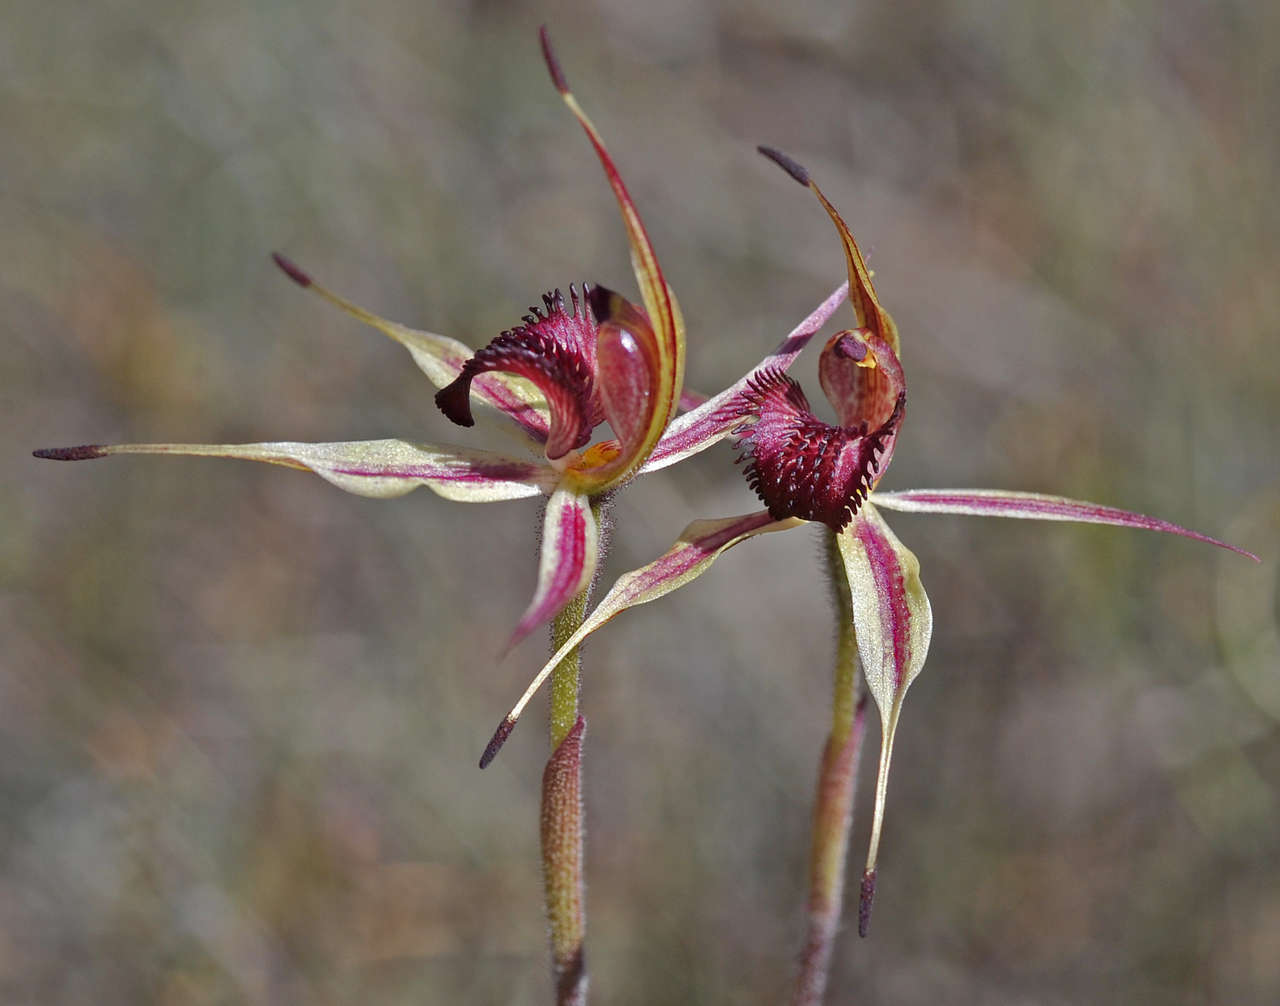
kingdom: Plantae
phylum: Tracheophyta
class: Liliopsida
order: Asparagales
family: Orchidaceae
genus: Caladenia
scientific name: Caladenia ampla
